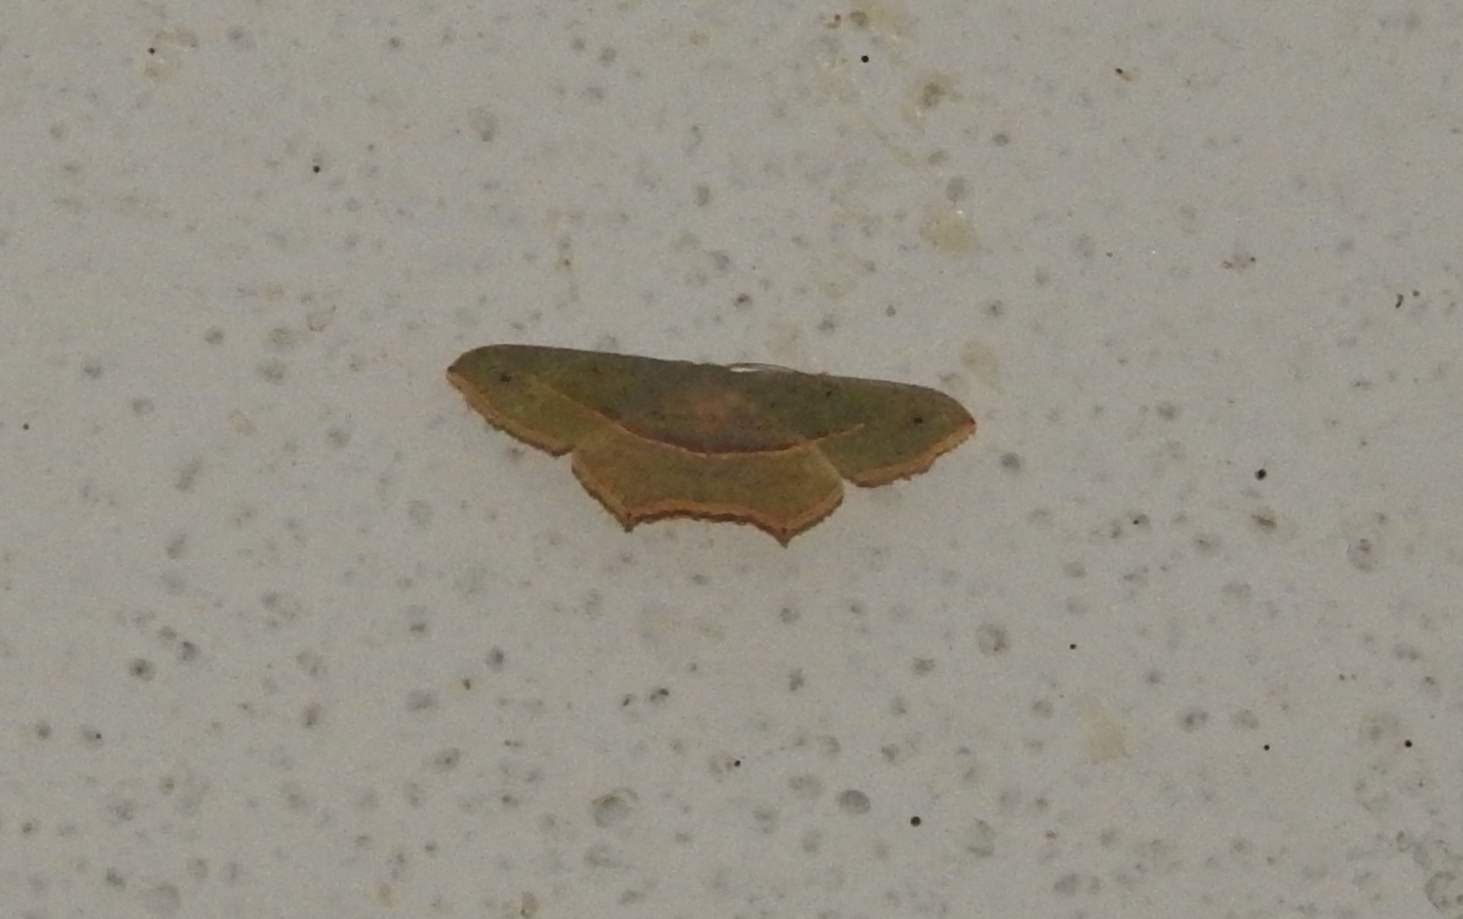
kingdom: Animalia
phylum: Arthropoda
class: Insecta
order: Lepidoptera
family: Geometridae
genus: Traminda
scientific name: Traminda mundissima
